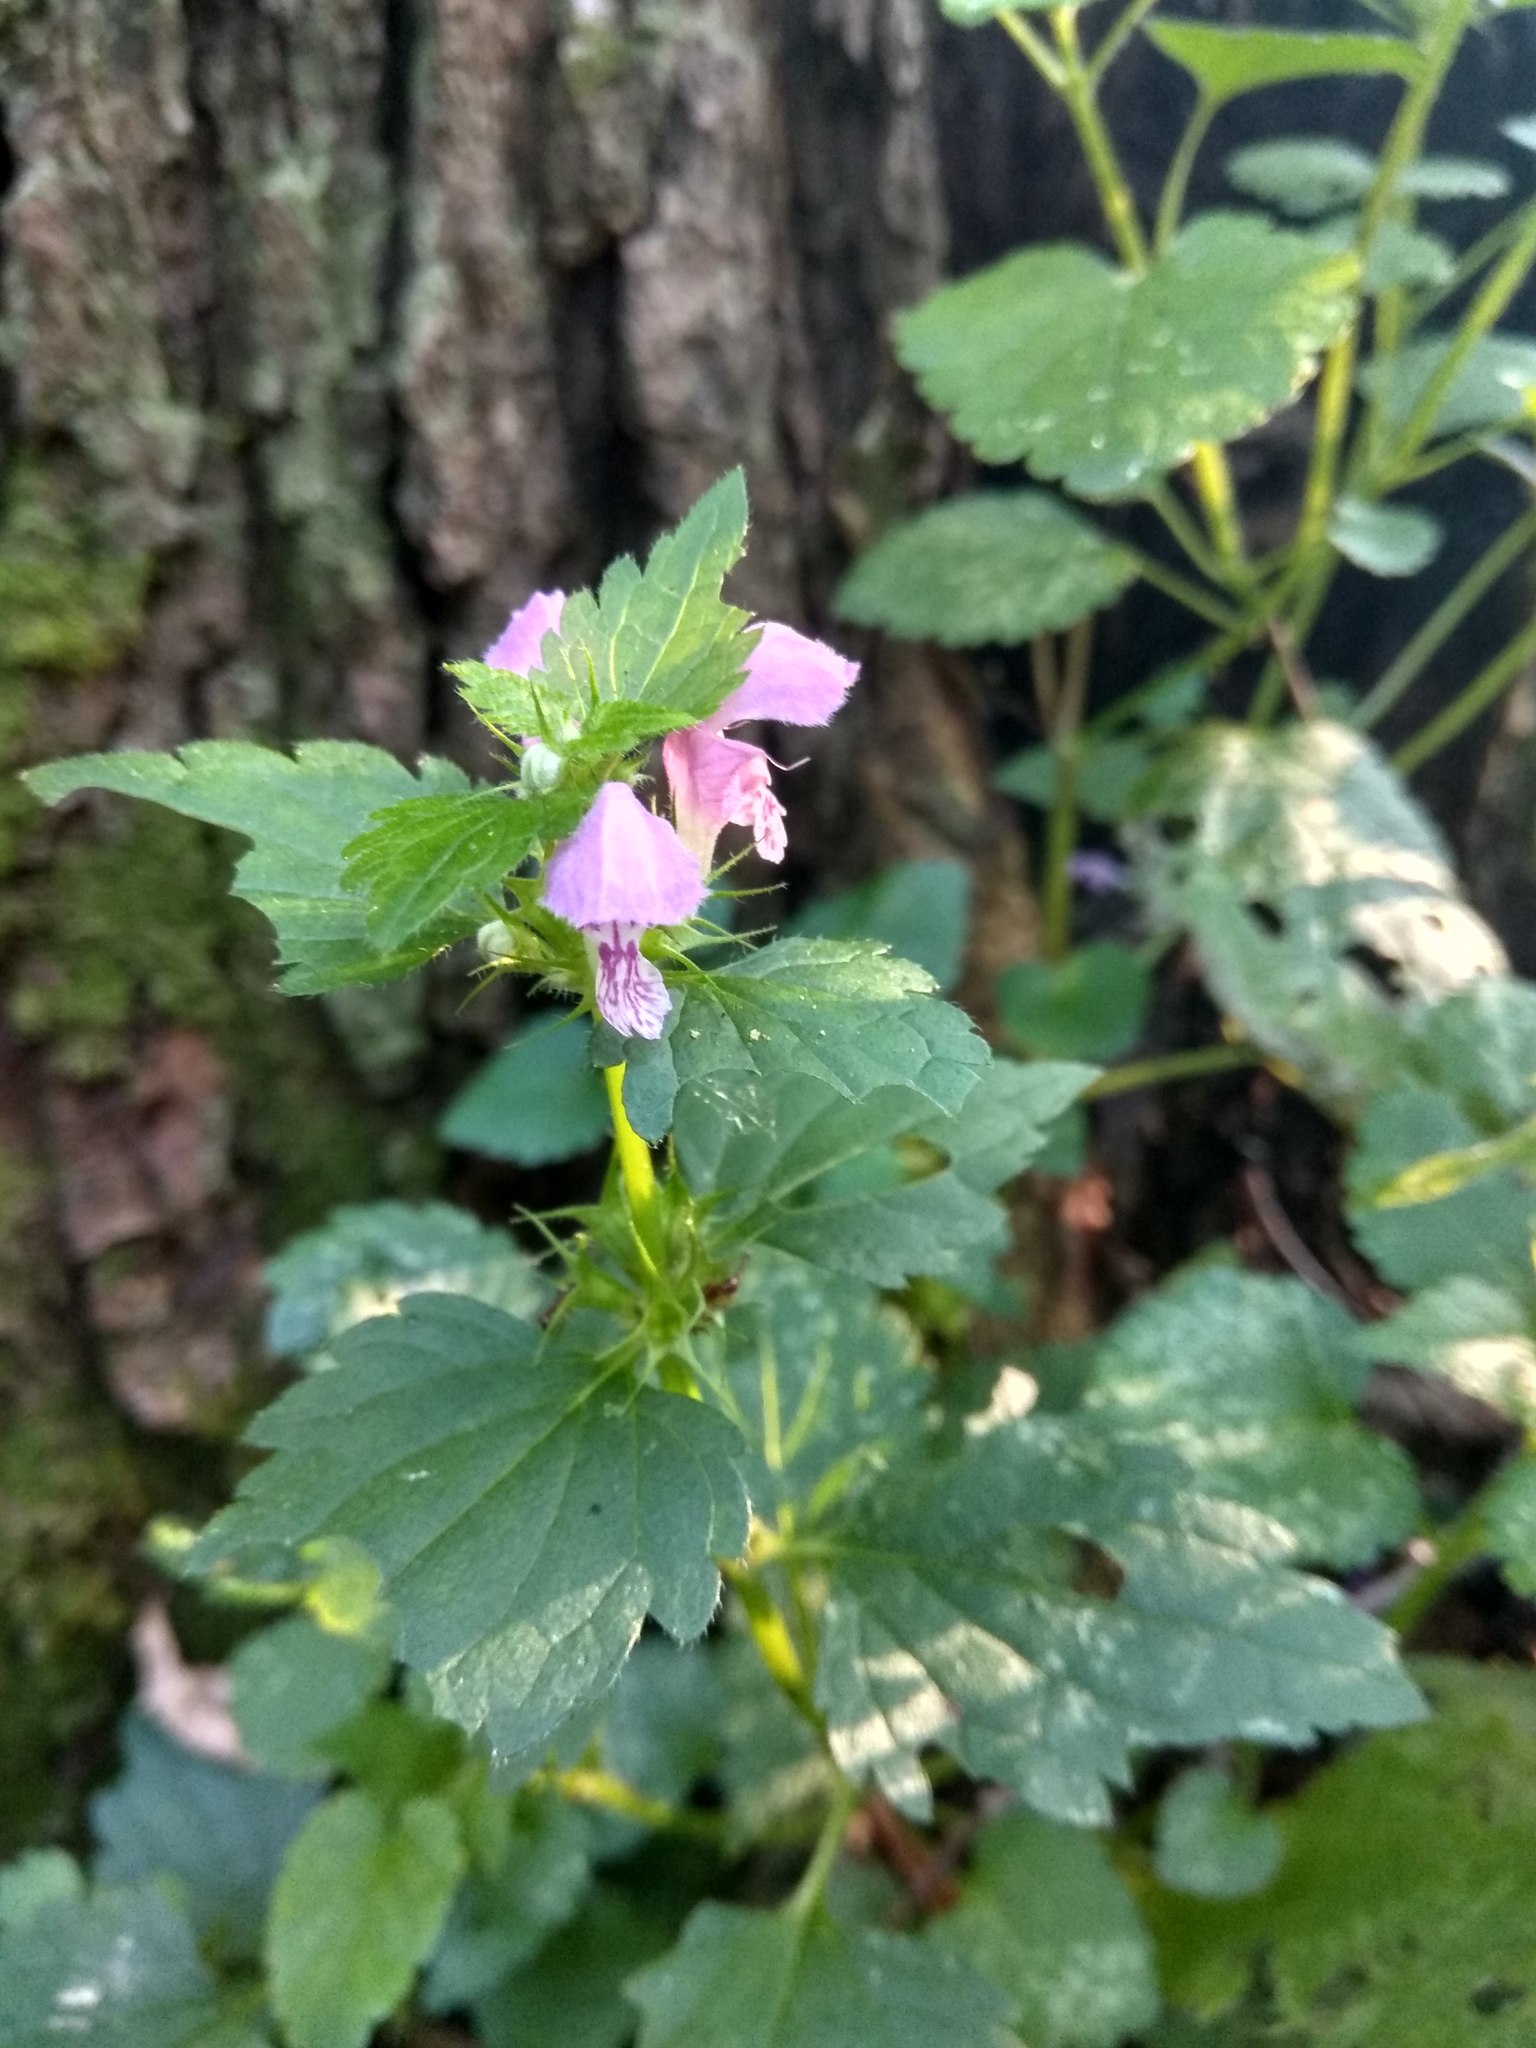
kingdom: Plantae
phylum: Tracheophyta
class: Magnoliopsida
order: Lamiales
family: Lamiaceae
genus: Lamium
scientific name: Lamium maculatum
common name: Spotted dead-nettle
